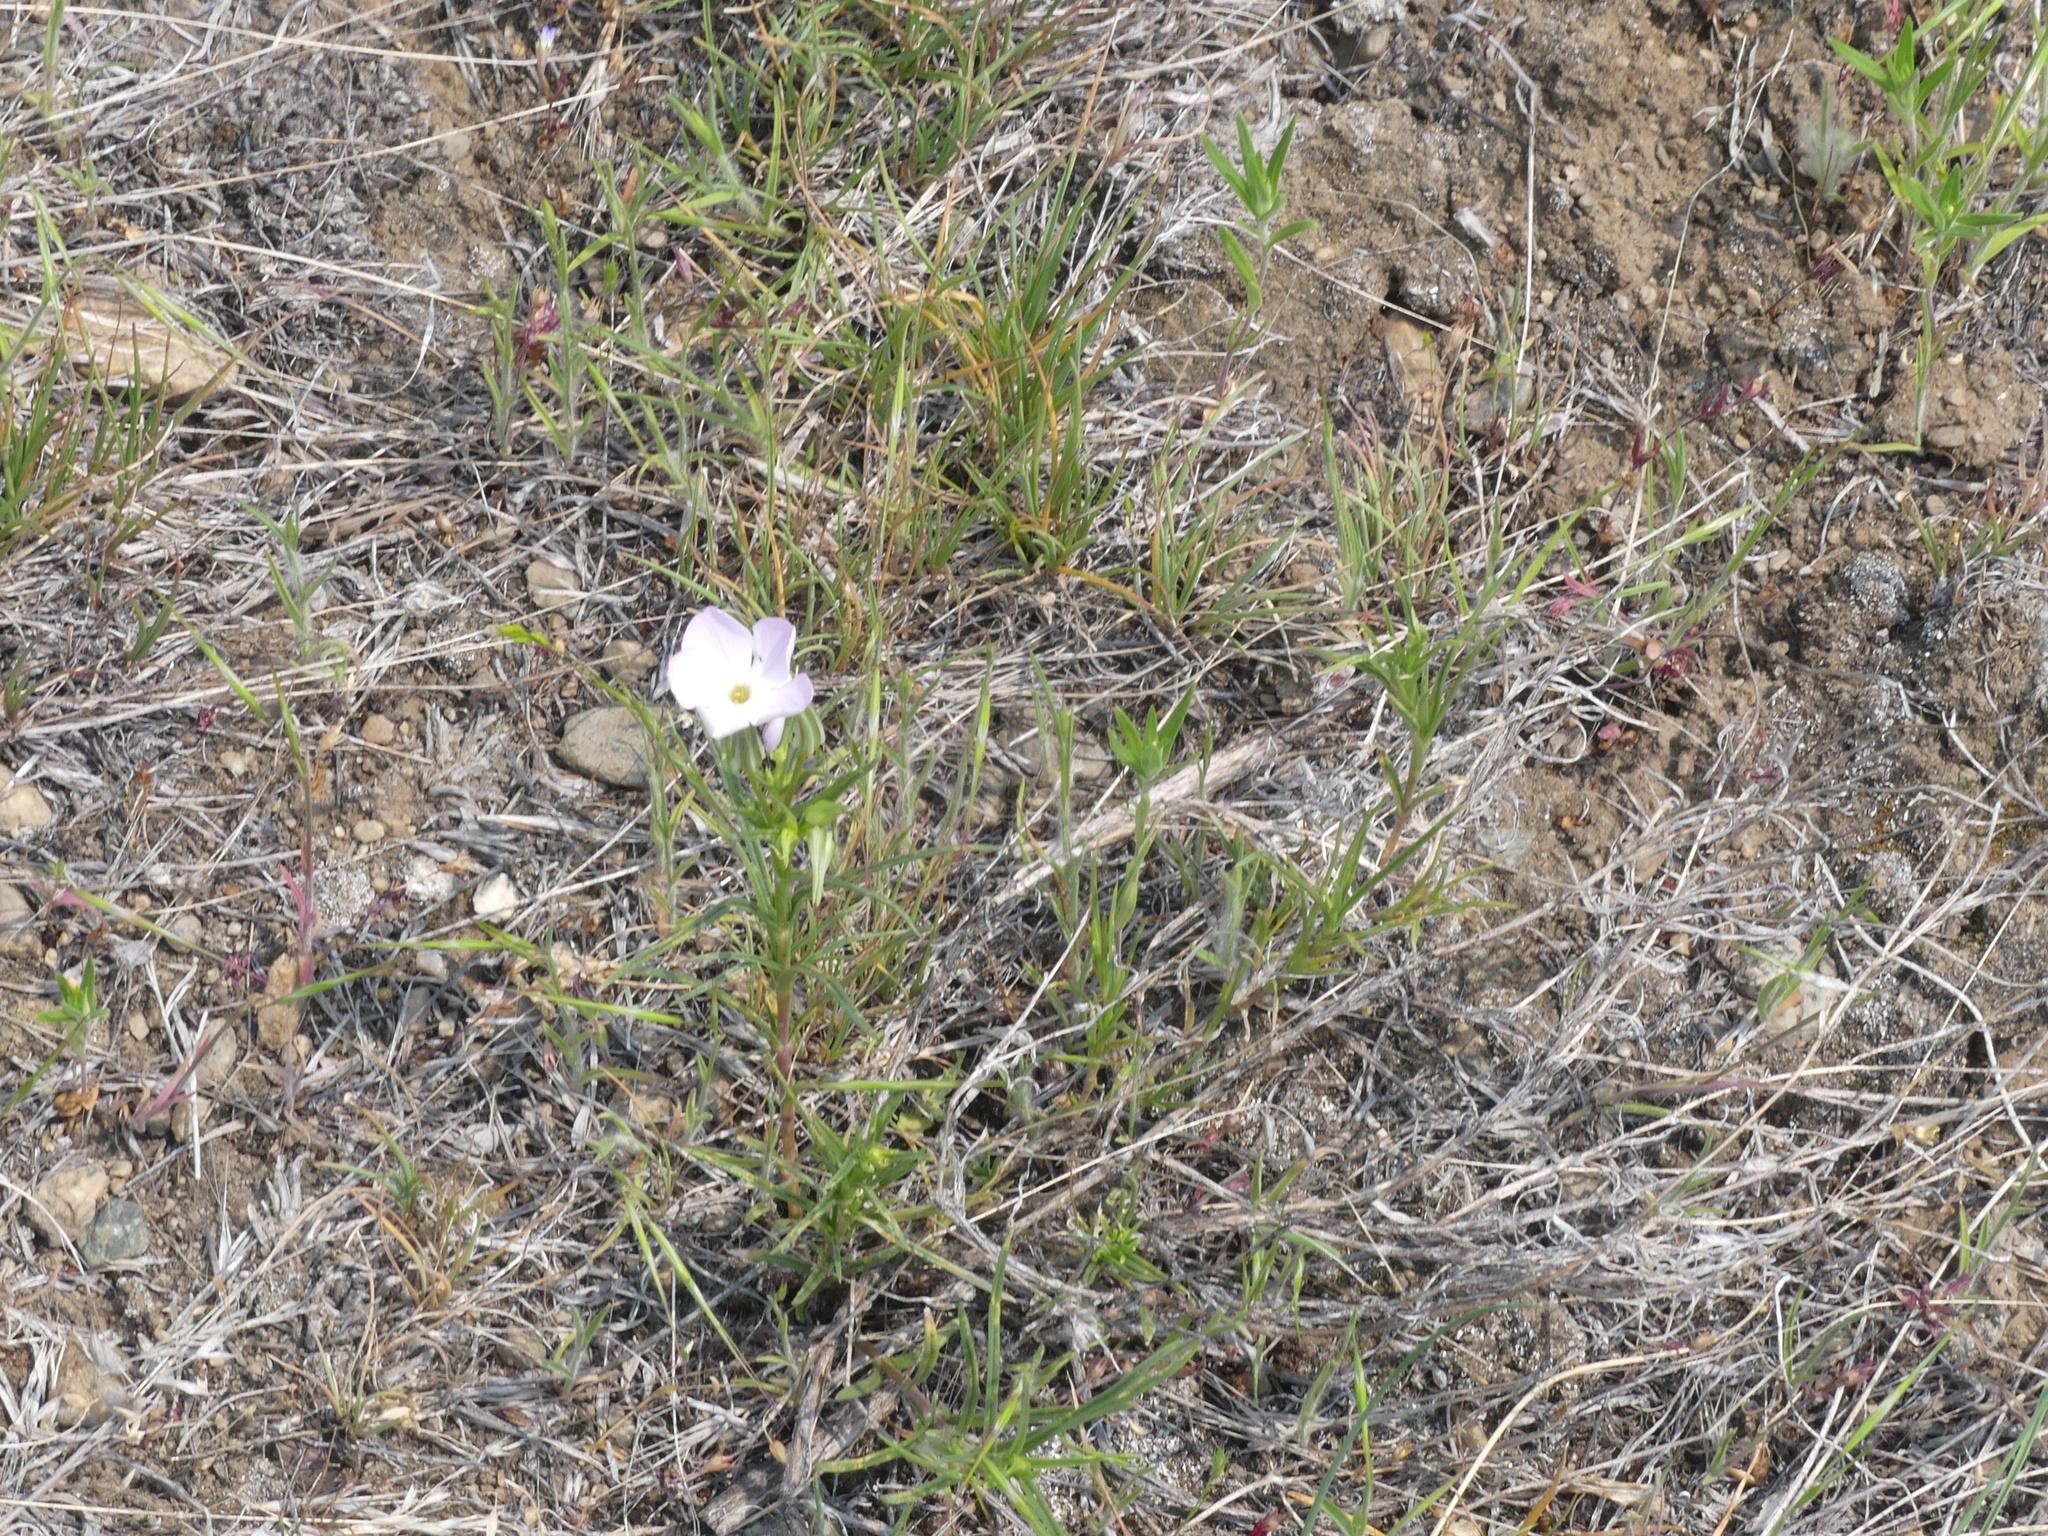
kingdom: Plantae
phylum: Tracheophyta
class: Magnoliopsida
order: Ericales
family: Polemoniaceae
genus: Phlox
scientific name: Phlox longifolia
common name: Longleaf phlox
